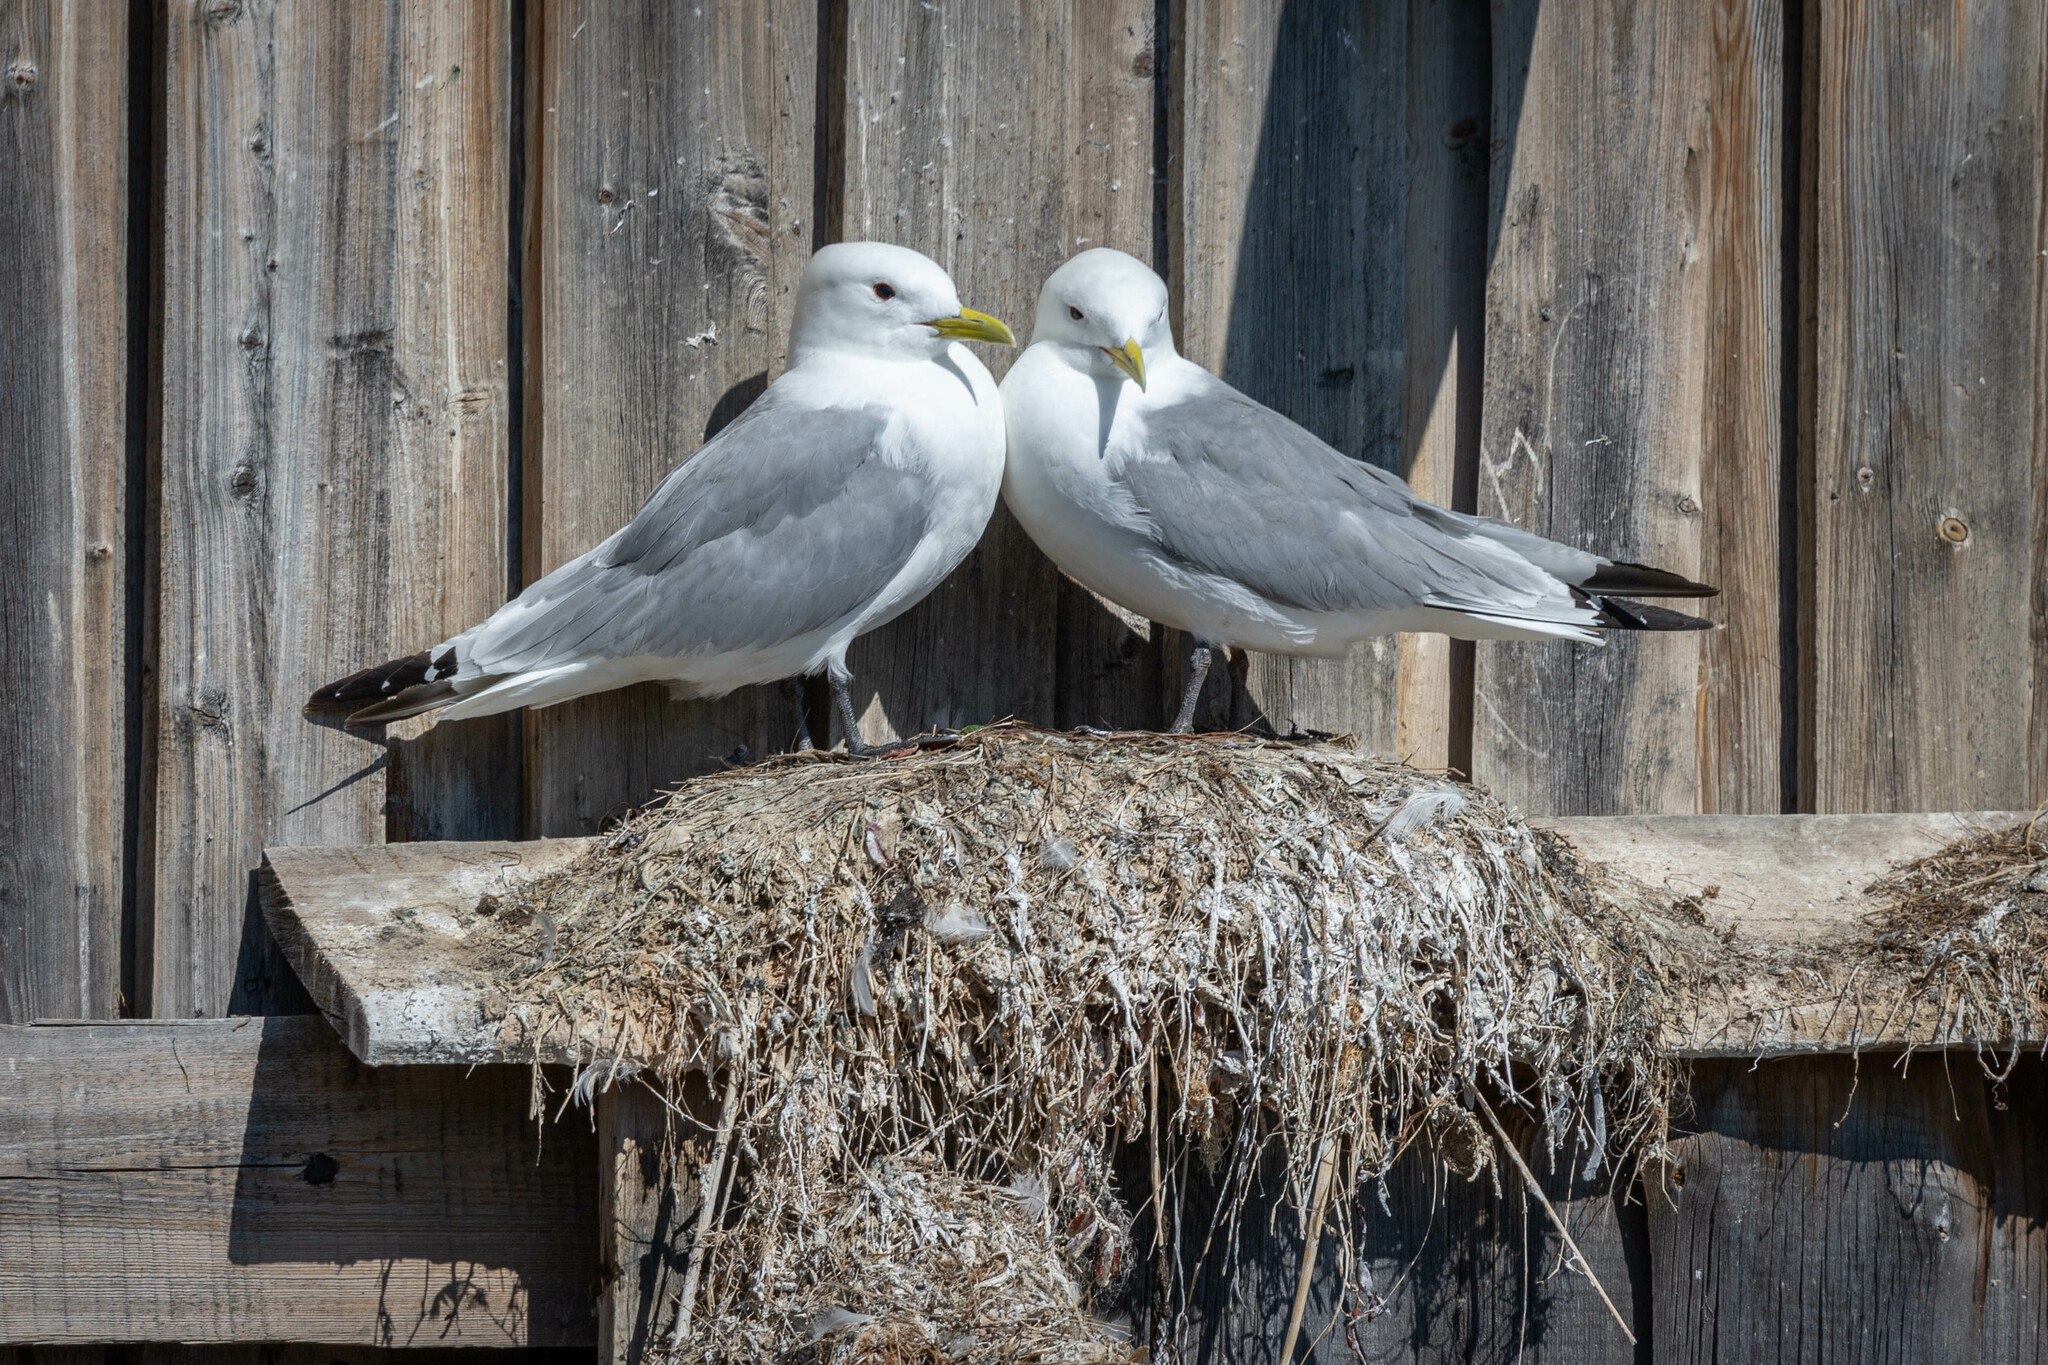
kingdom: Animalia
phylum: Chordata
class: Aves
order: Charadriiformes
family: Laridae
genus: Rissa
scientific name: Rissa tridactyla
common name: Black-legged kittiwake
